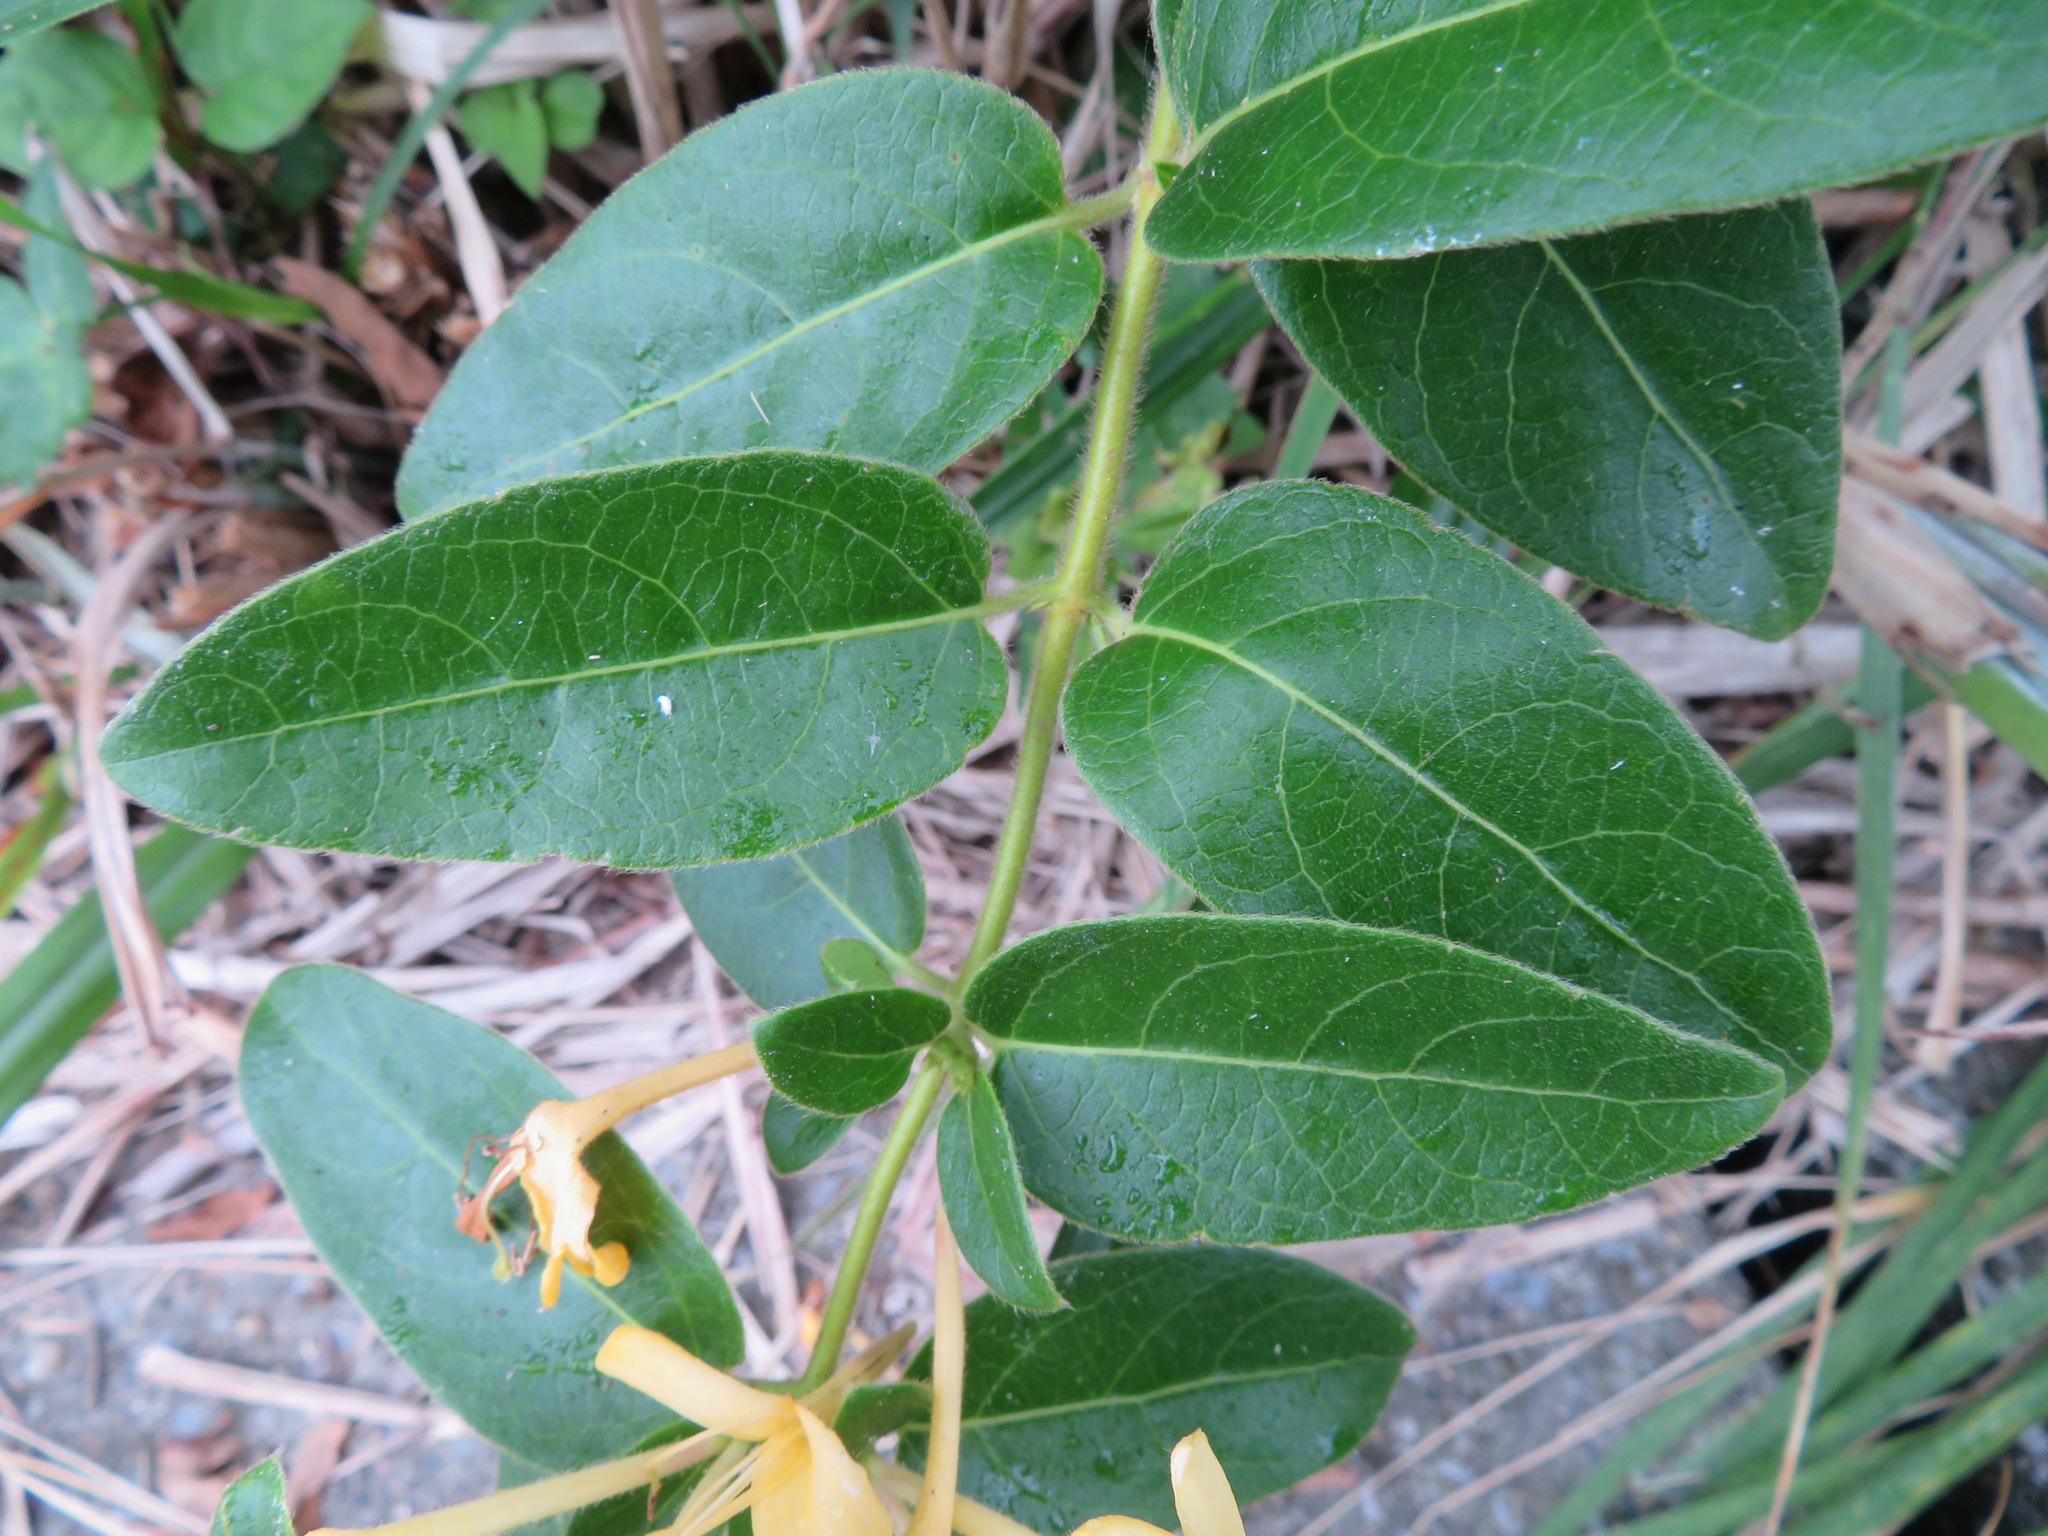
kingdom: Plantae
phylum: Tracheophyta
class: Magnoliopsida
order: Dipsacales
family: Caprifoliaceae
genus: Lonicera
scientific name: Lonicera japonica
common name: Japanese honeysuckle
